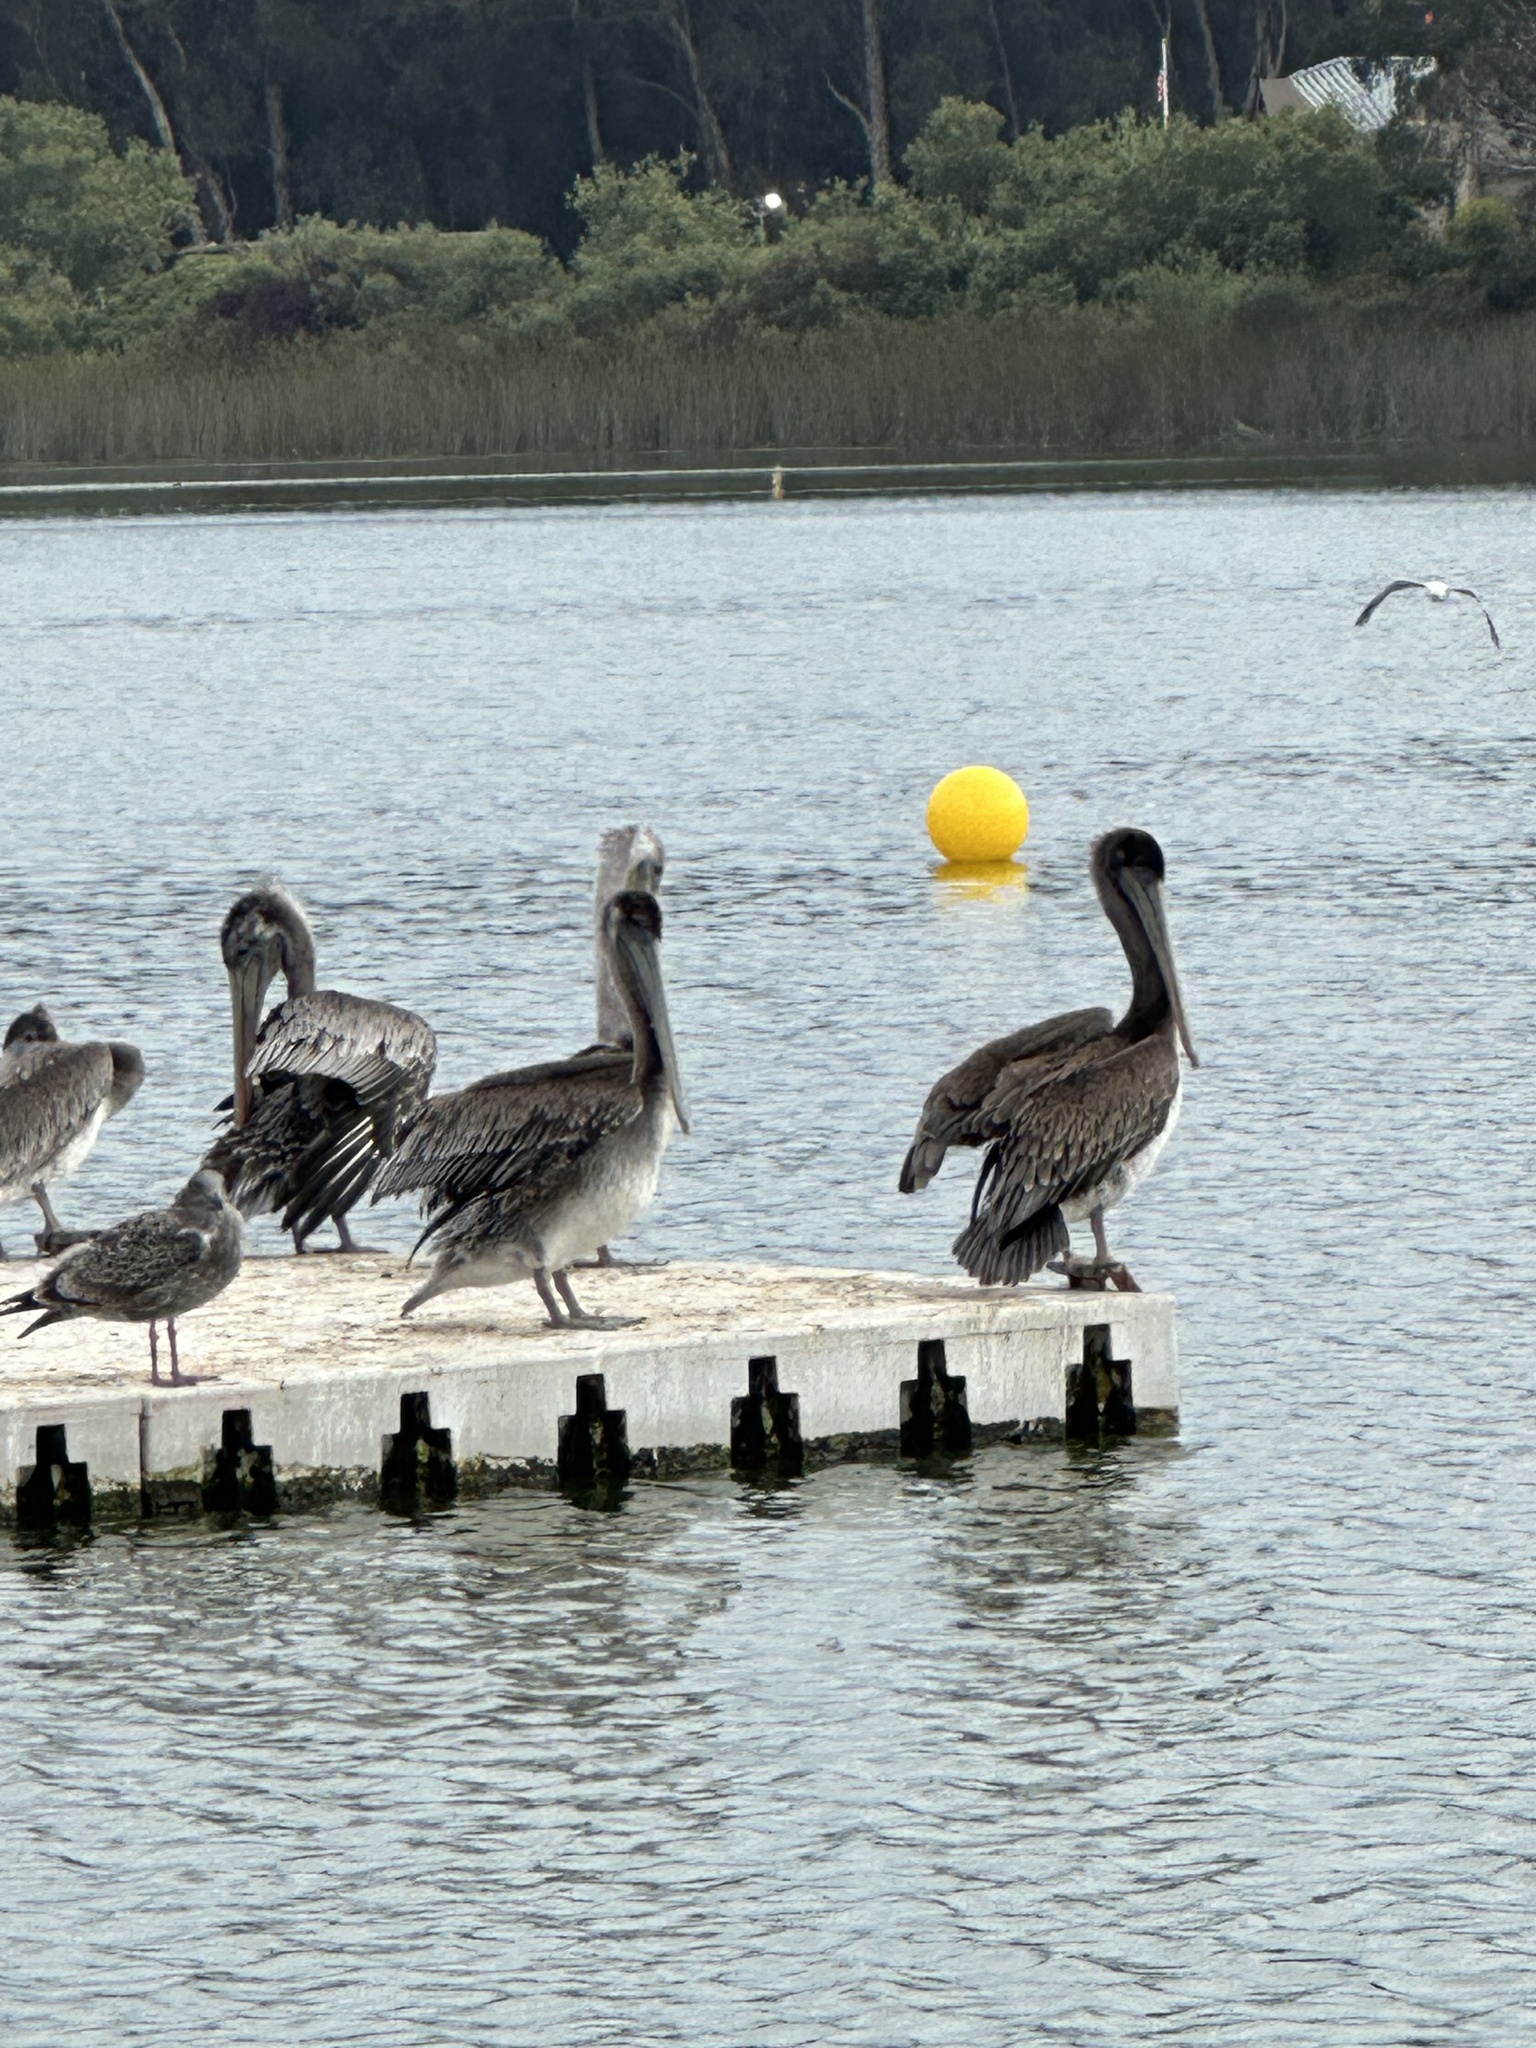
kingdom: Animalia
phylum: Chordata
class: Aves
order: Pelecaniformes
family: Pelecanidae
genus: Pelecanus
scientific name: Pelecanus occidentalis
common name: Brown pelican
